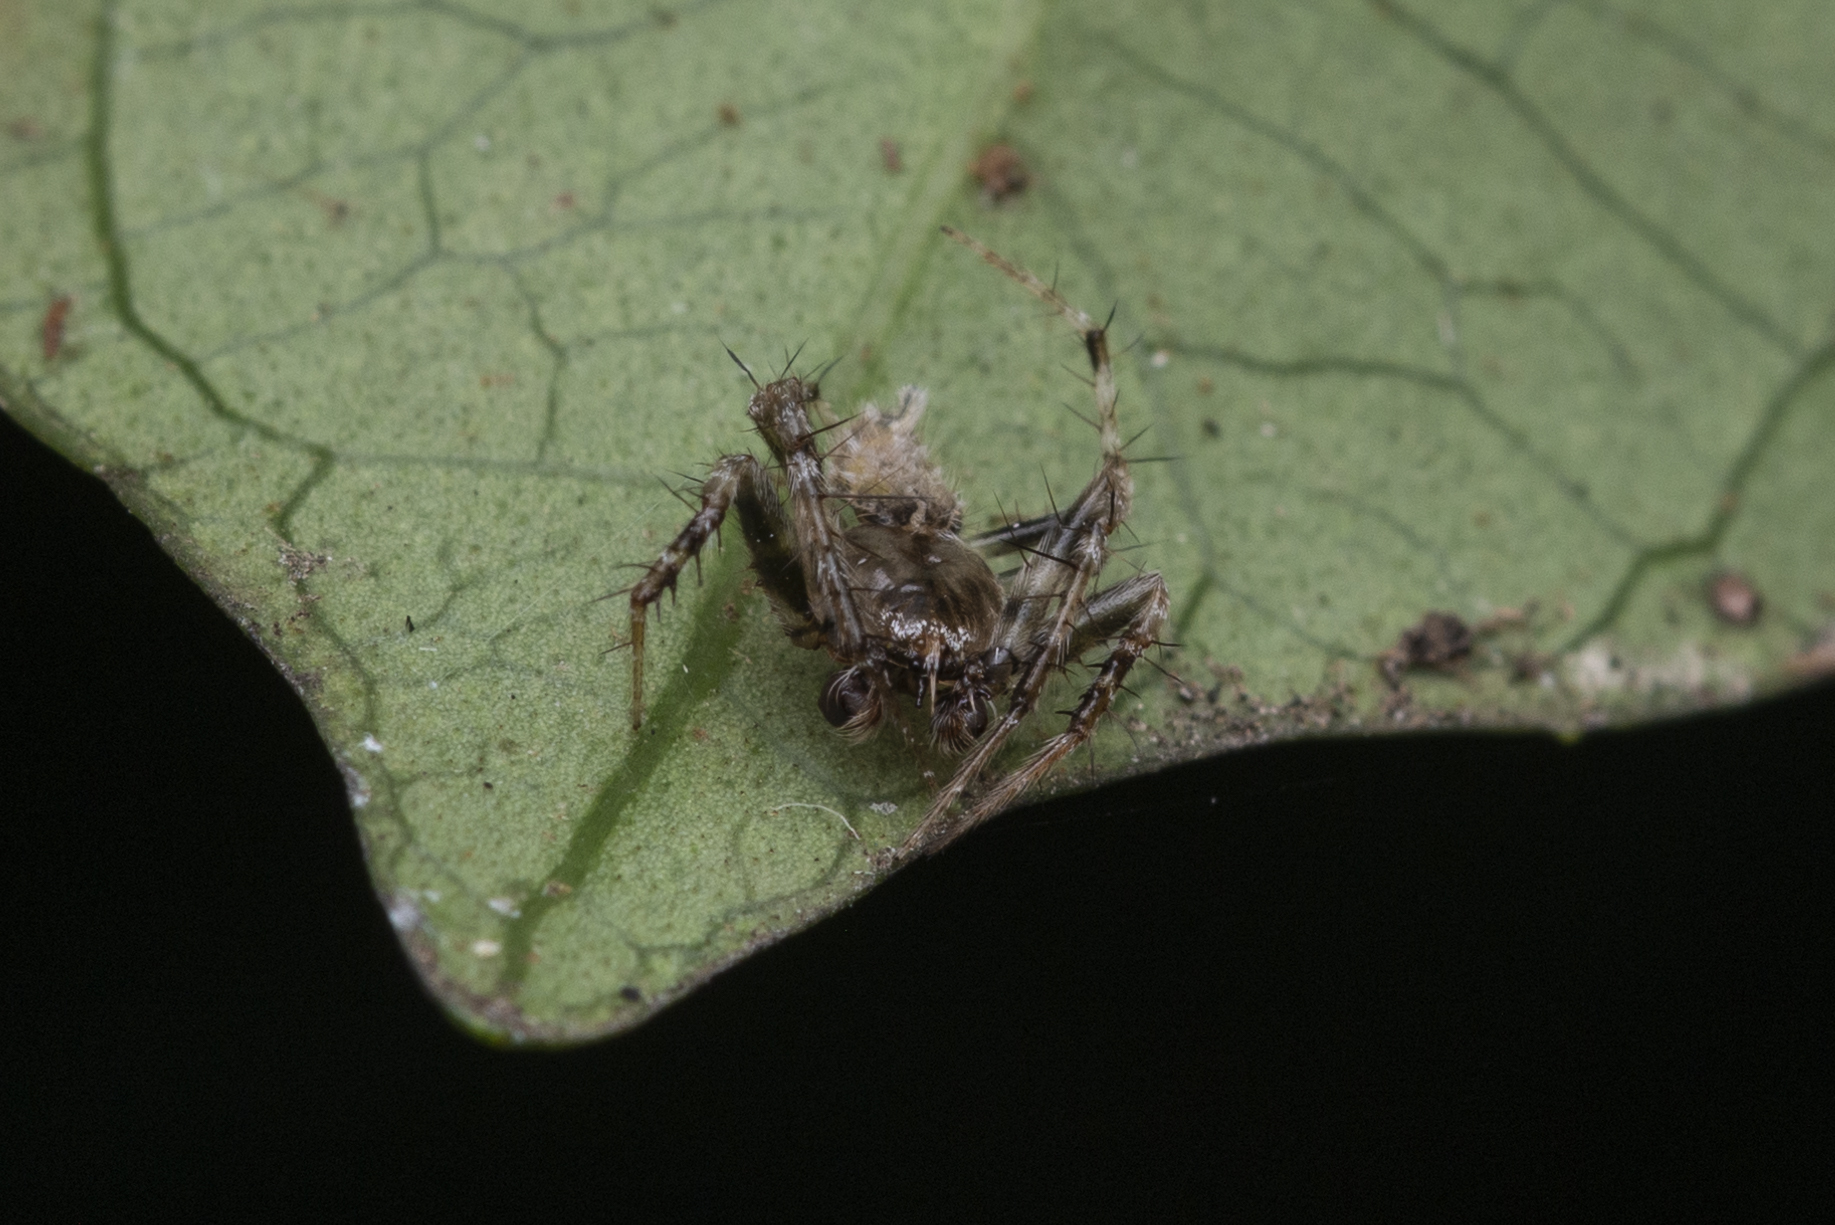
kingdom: Animalia
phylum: Arthropoda
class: Arachnida
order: Araneae
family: Araneidae
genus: Eriovixia
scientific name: Eriovixia laglaizei
